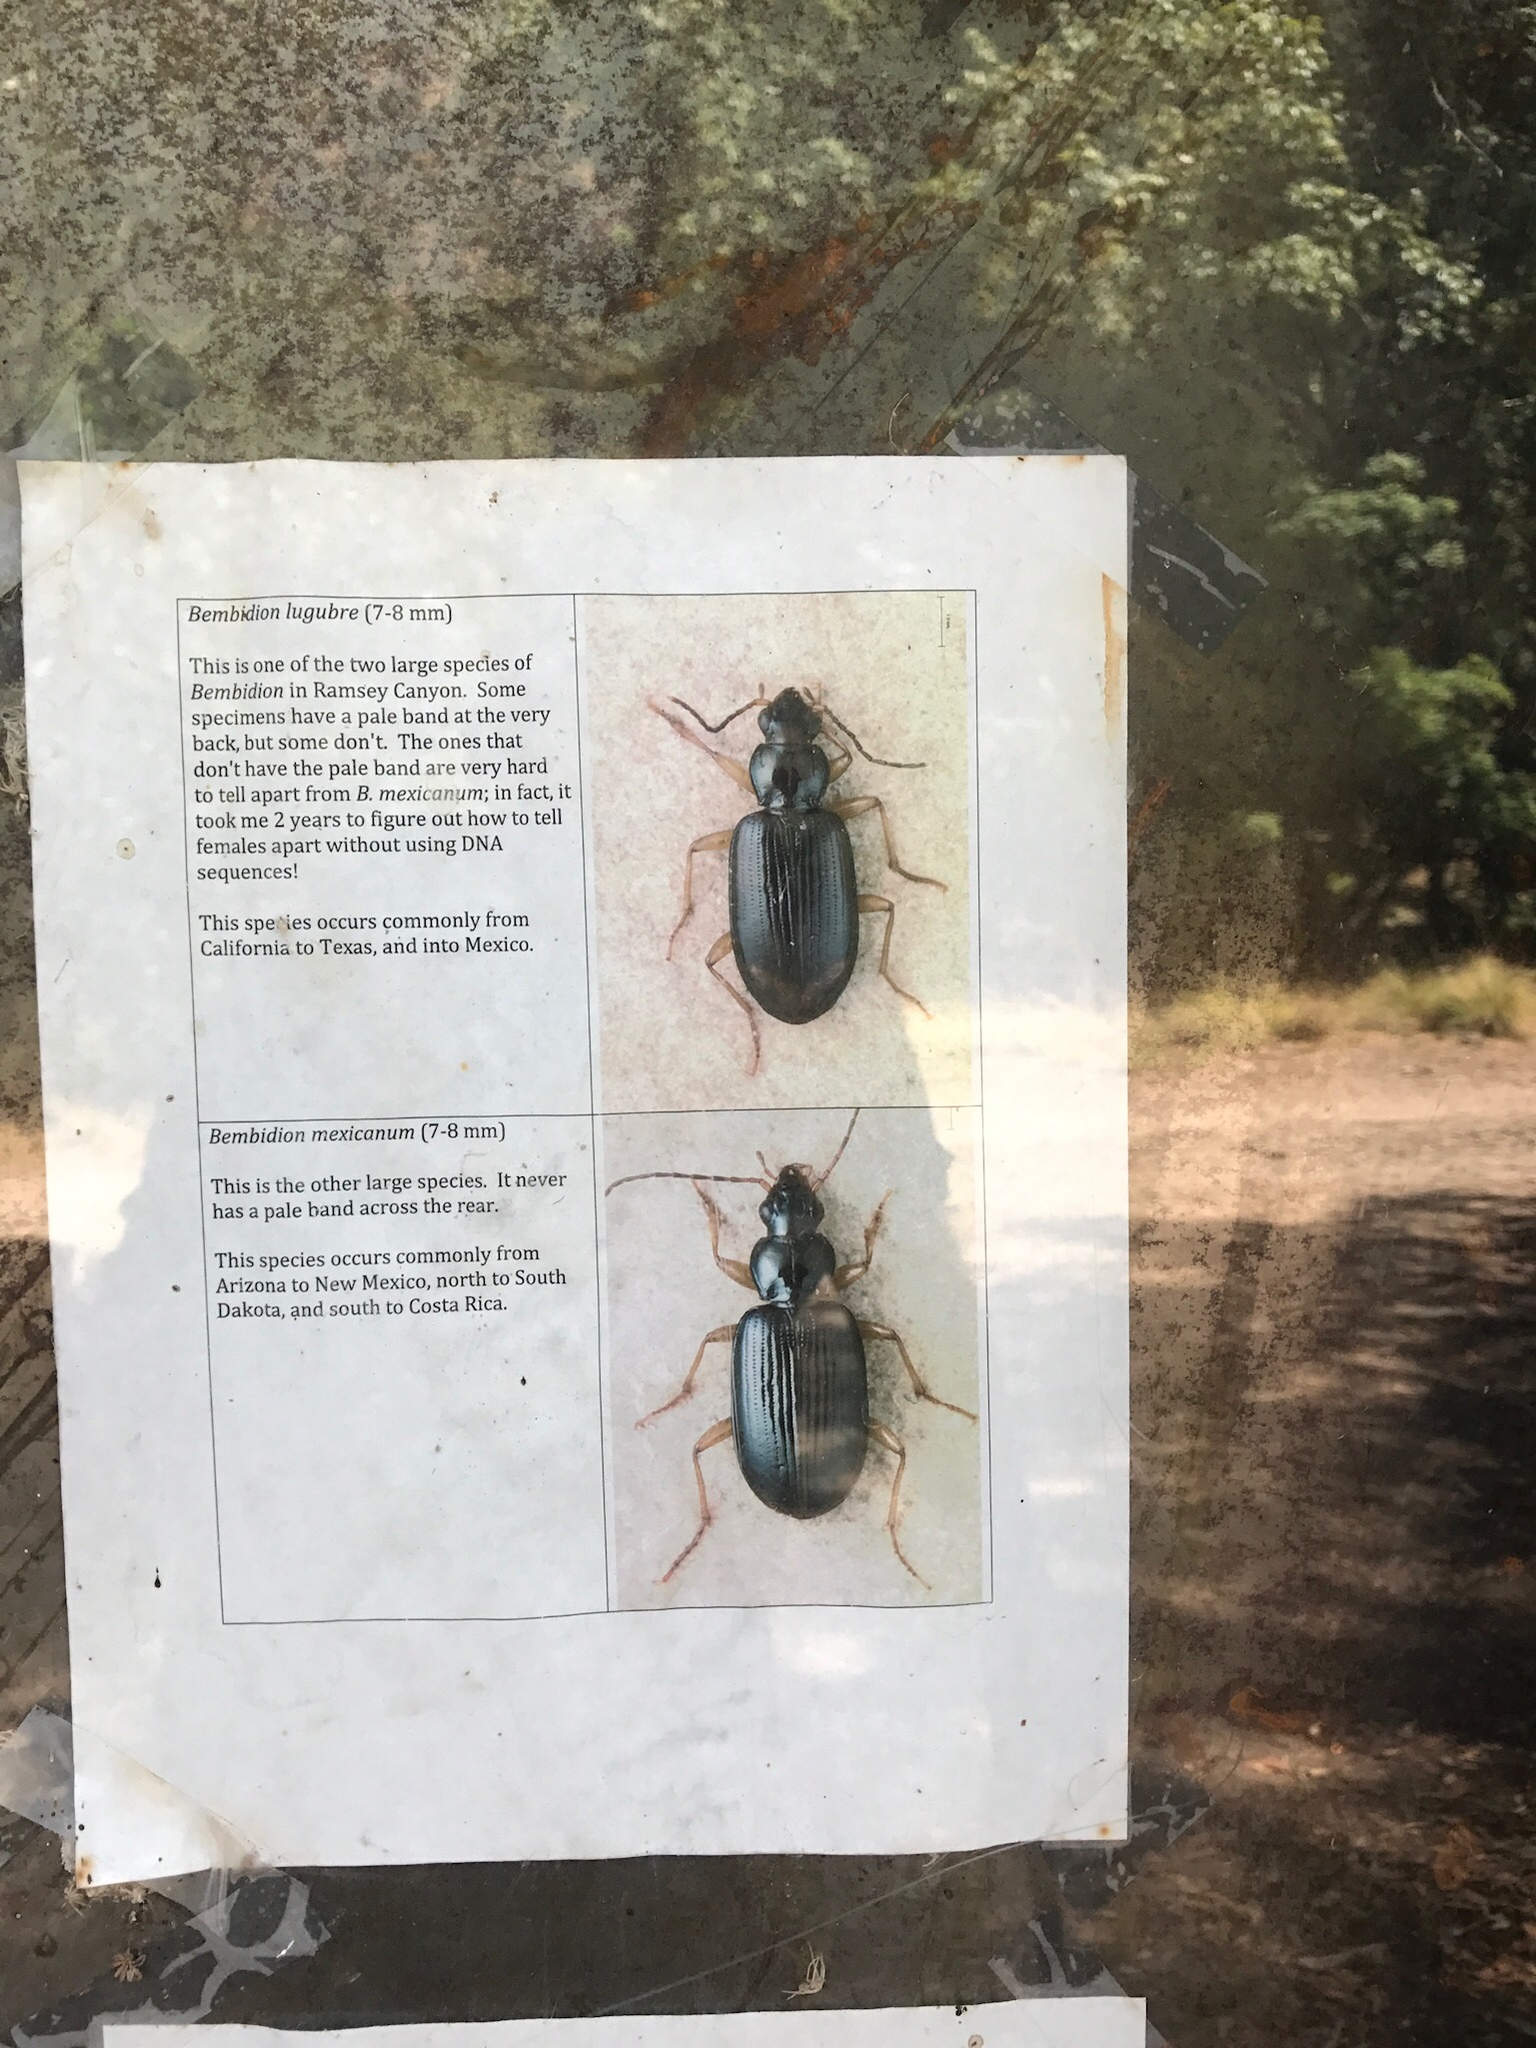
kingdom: Animalia
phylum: Arthropoda
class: Insecta
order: Coleoptera
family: Tenebrionidae
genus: Eleodes
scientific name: Eleodes obscura
